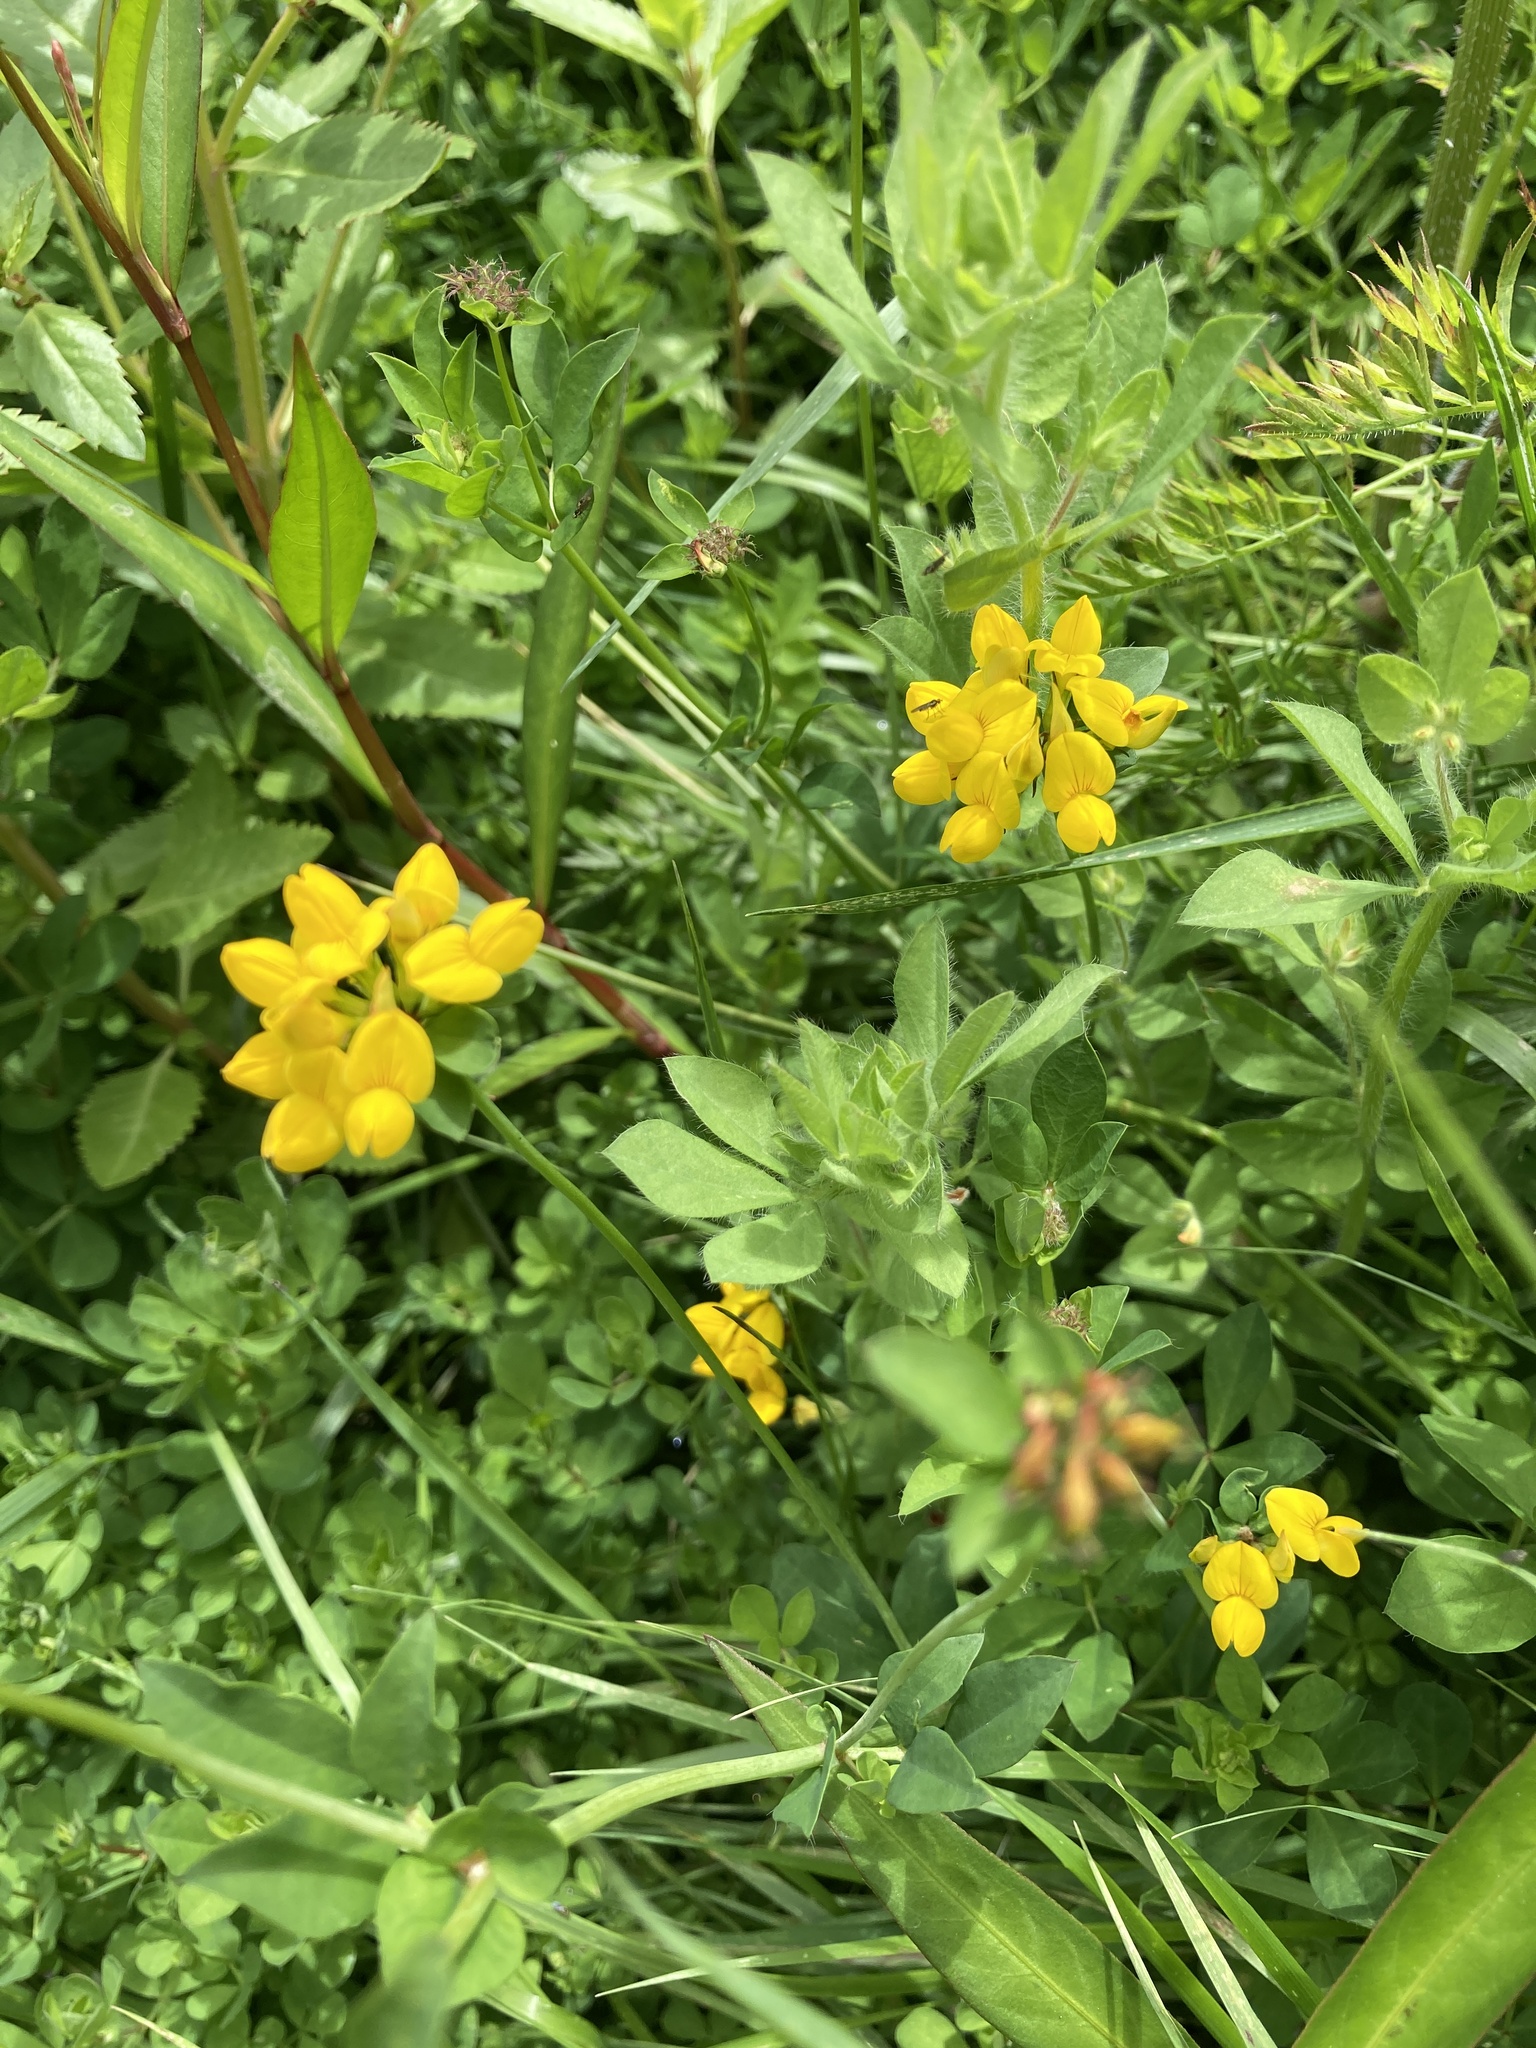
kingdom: Plantae
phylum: Tracheophyta
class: Magnoliopsida
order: Fabales
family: Fabaceae
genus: Lotus
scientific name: Lotus pedunculatus
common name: Greater birdsfoot-trefoil
